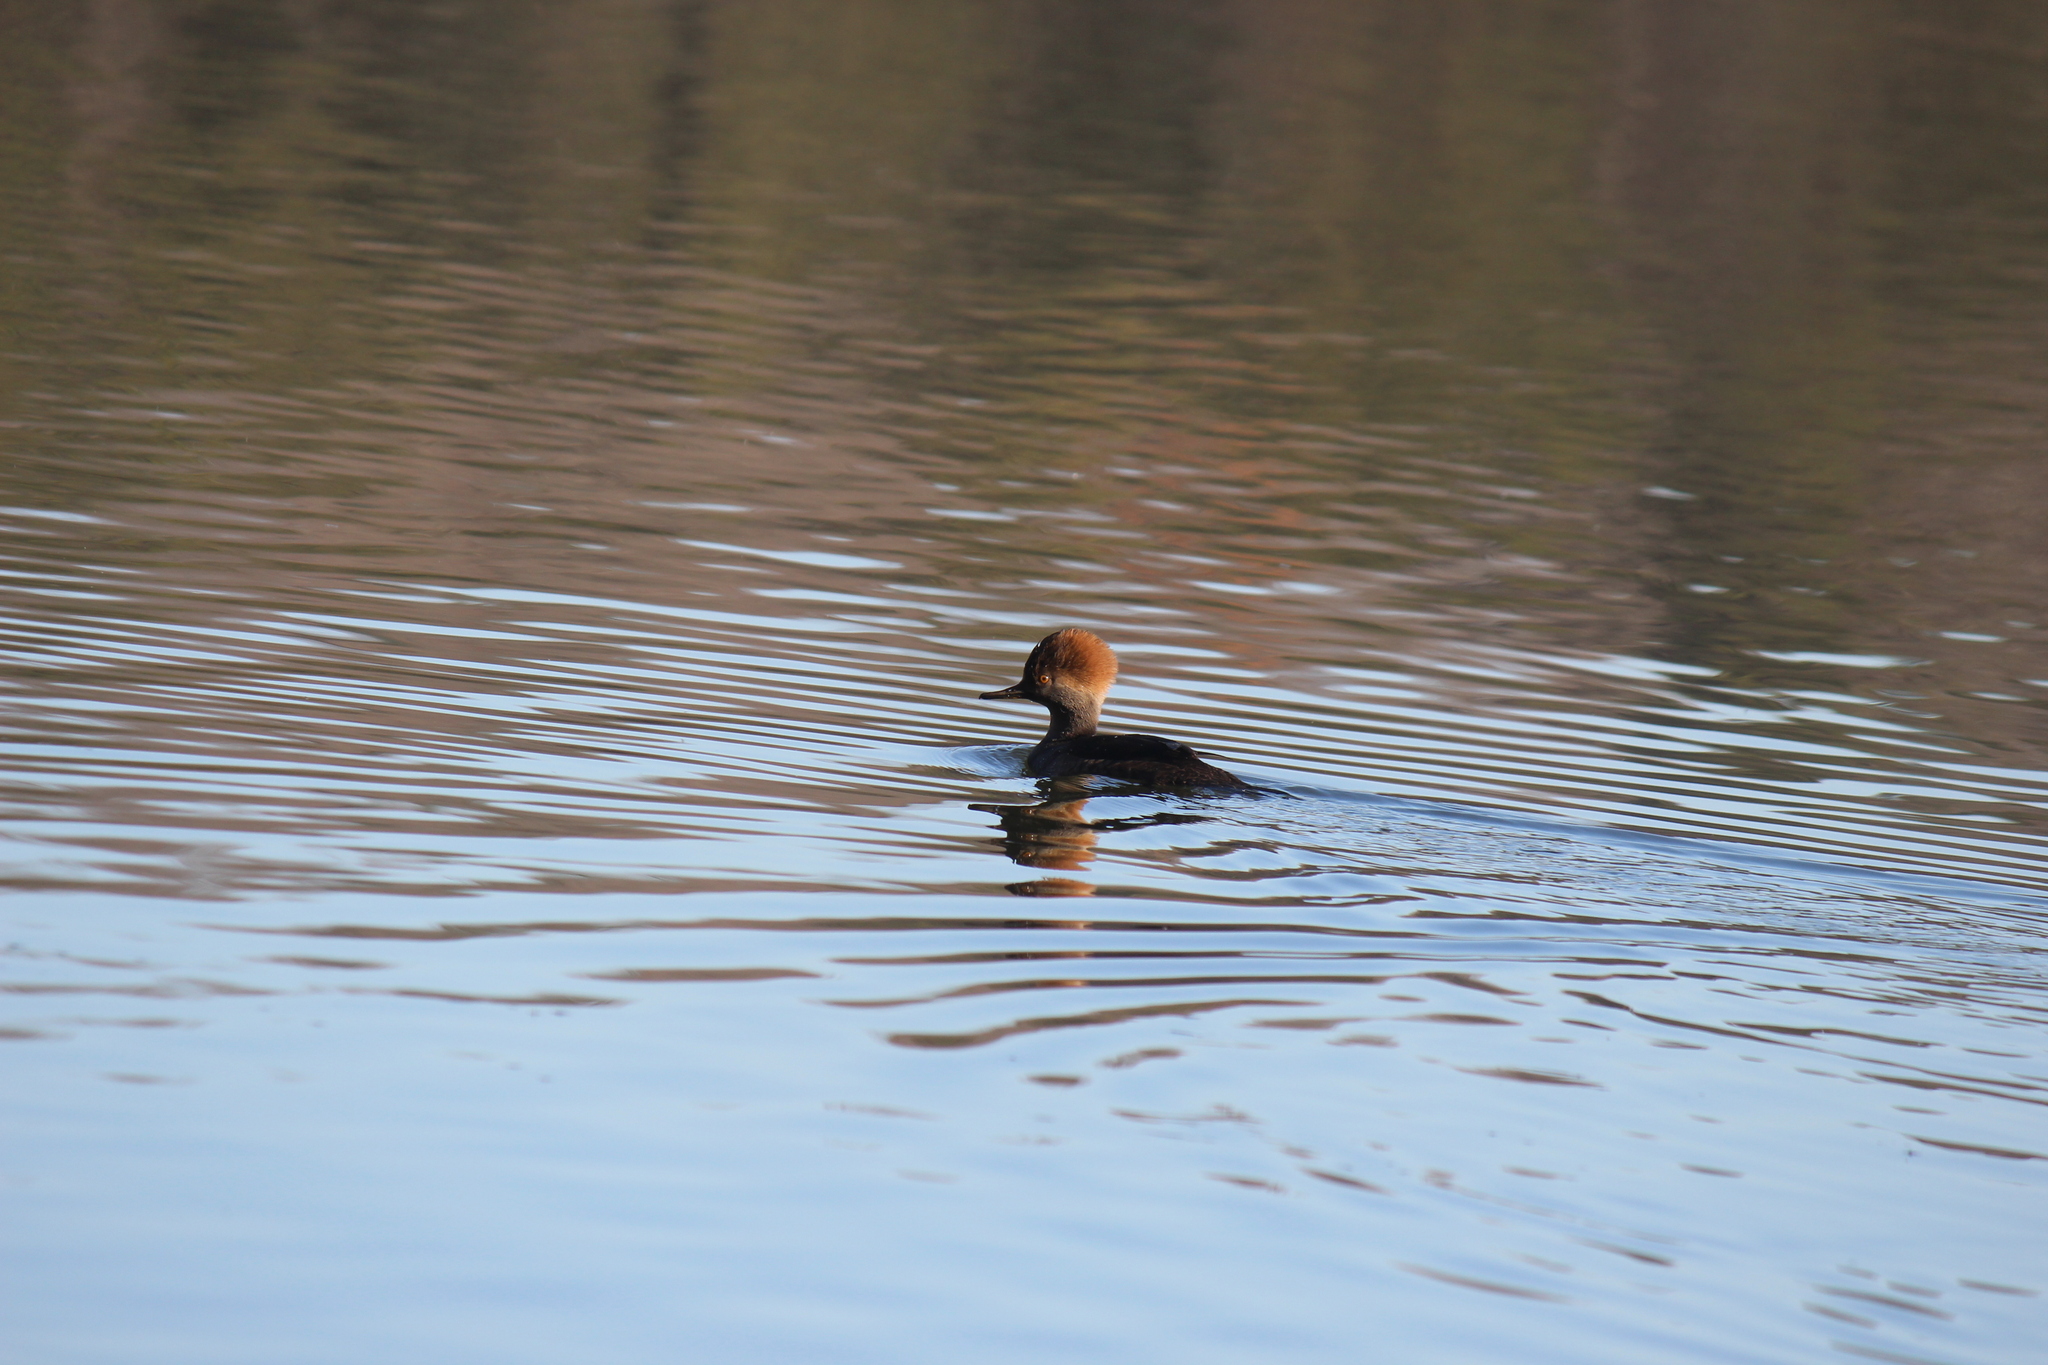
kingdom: Animalia
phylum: Chordata
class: Aves
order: Anseriformes
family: Anatidae
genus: Lophodytes
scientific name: Lophodytes cucullatus
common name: Hooded merganser
